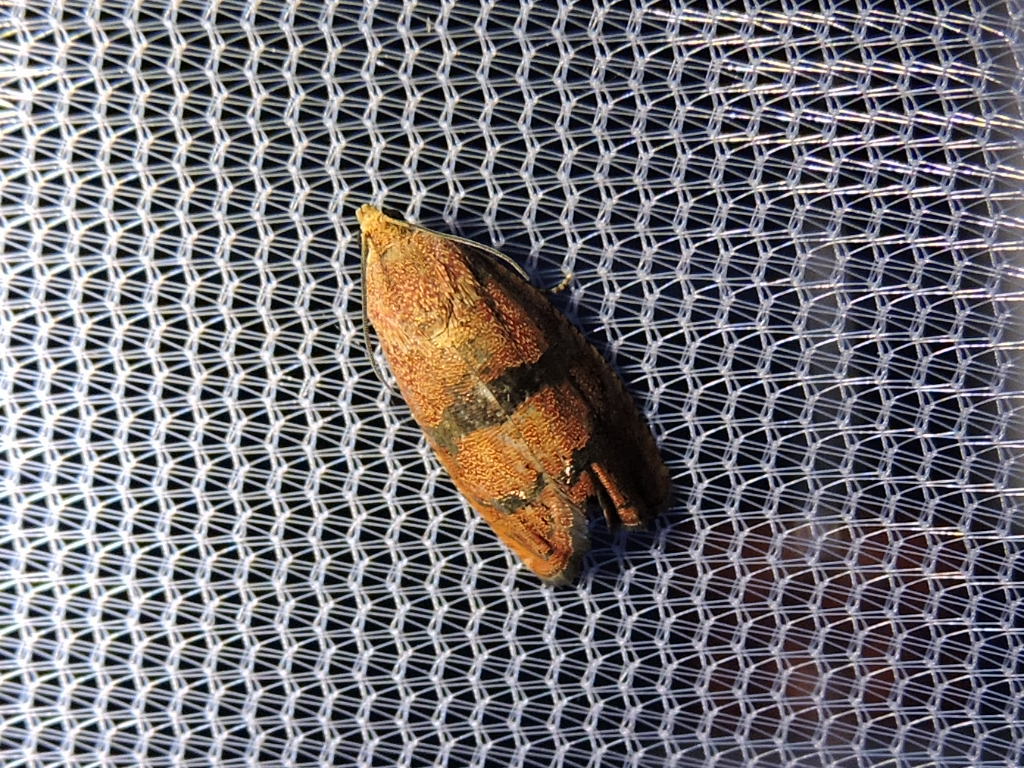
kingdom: Animalia
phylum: Arthropoda
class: Insecta
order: Lepidoptera
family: Tortricidae
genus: Cydia
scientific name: Cydia latiferreana
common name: Filbertworm moth
